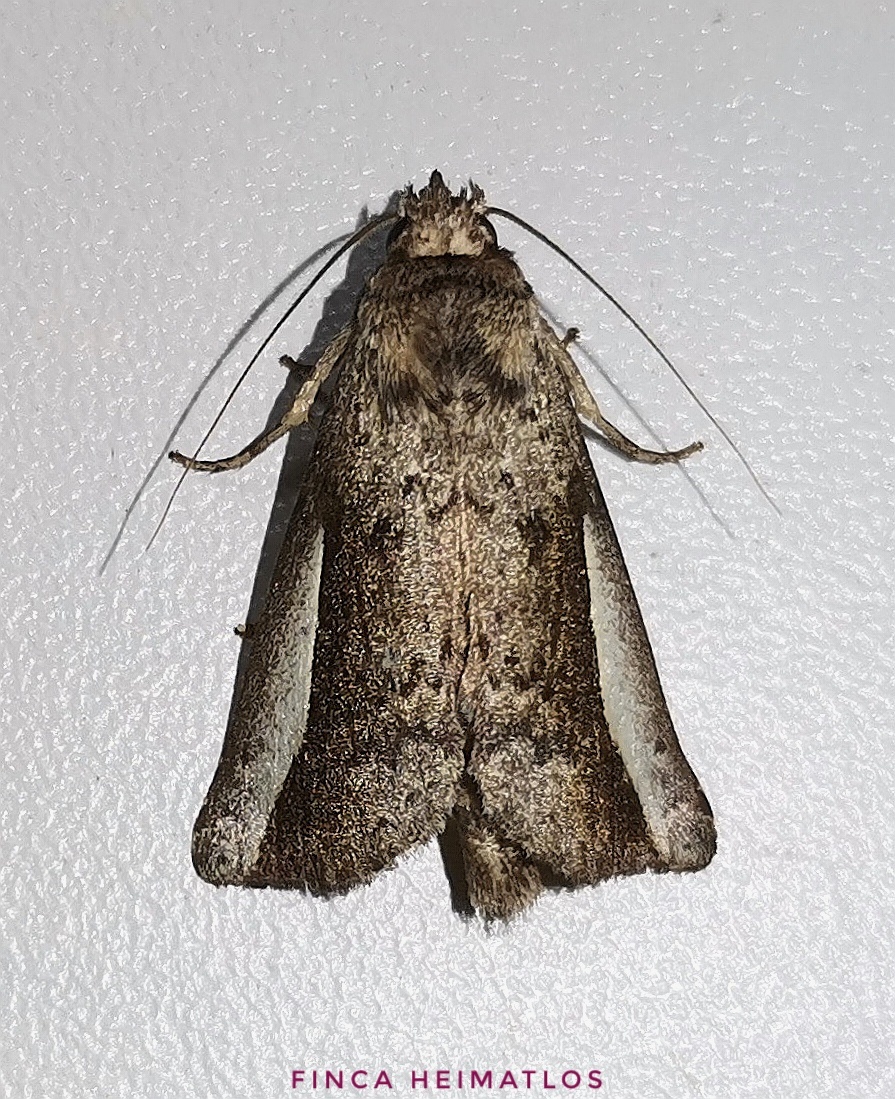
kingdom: Animalia
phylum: Arthropoda
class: Insecta
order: Lepidoptera
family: Notodontidae
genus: Hippia
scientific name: Hippia mumetes
